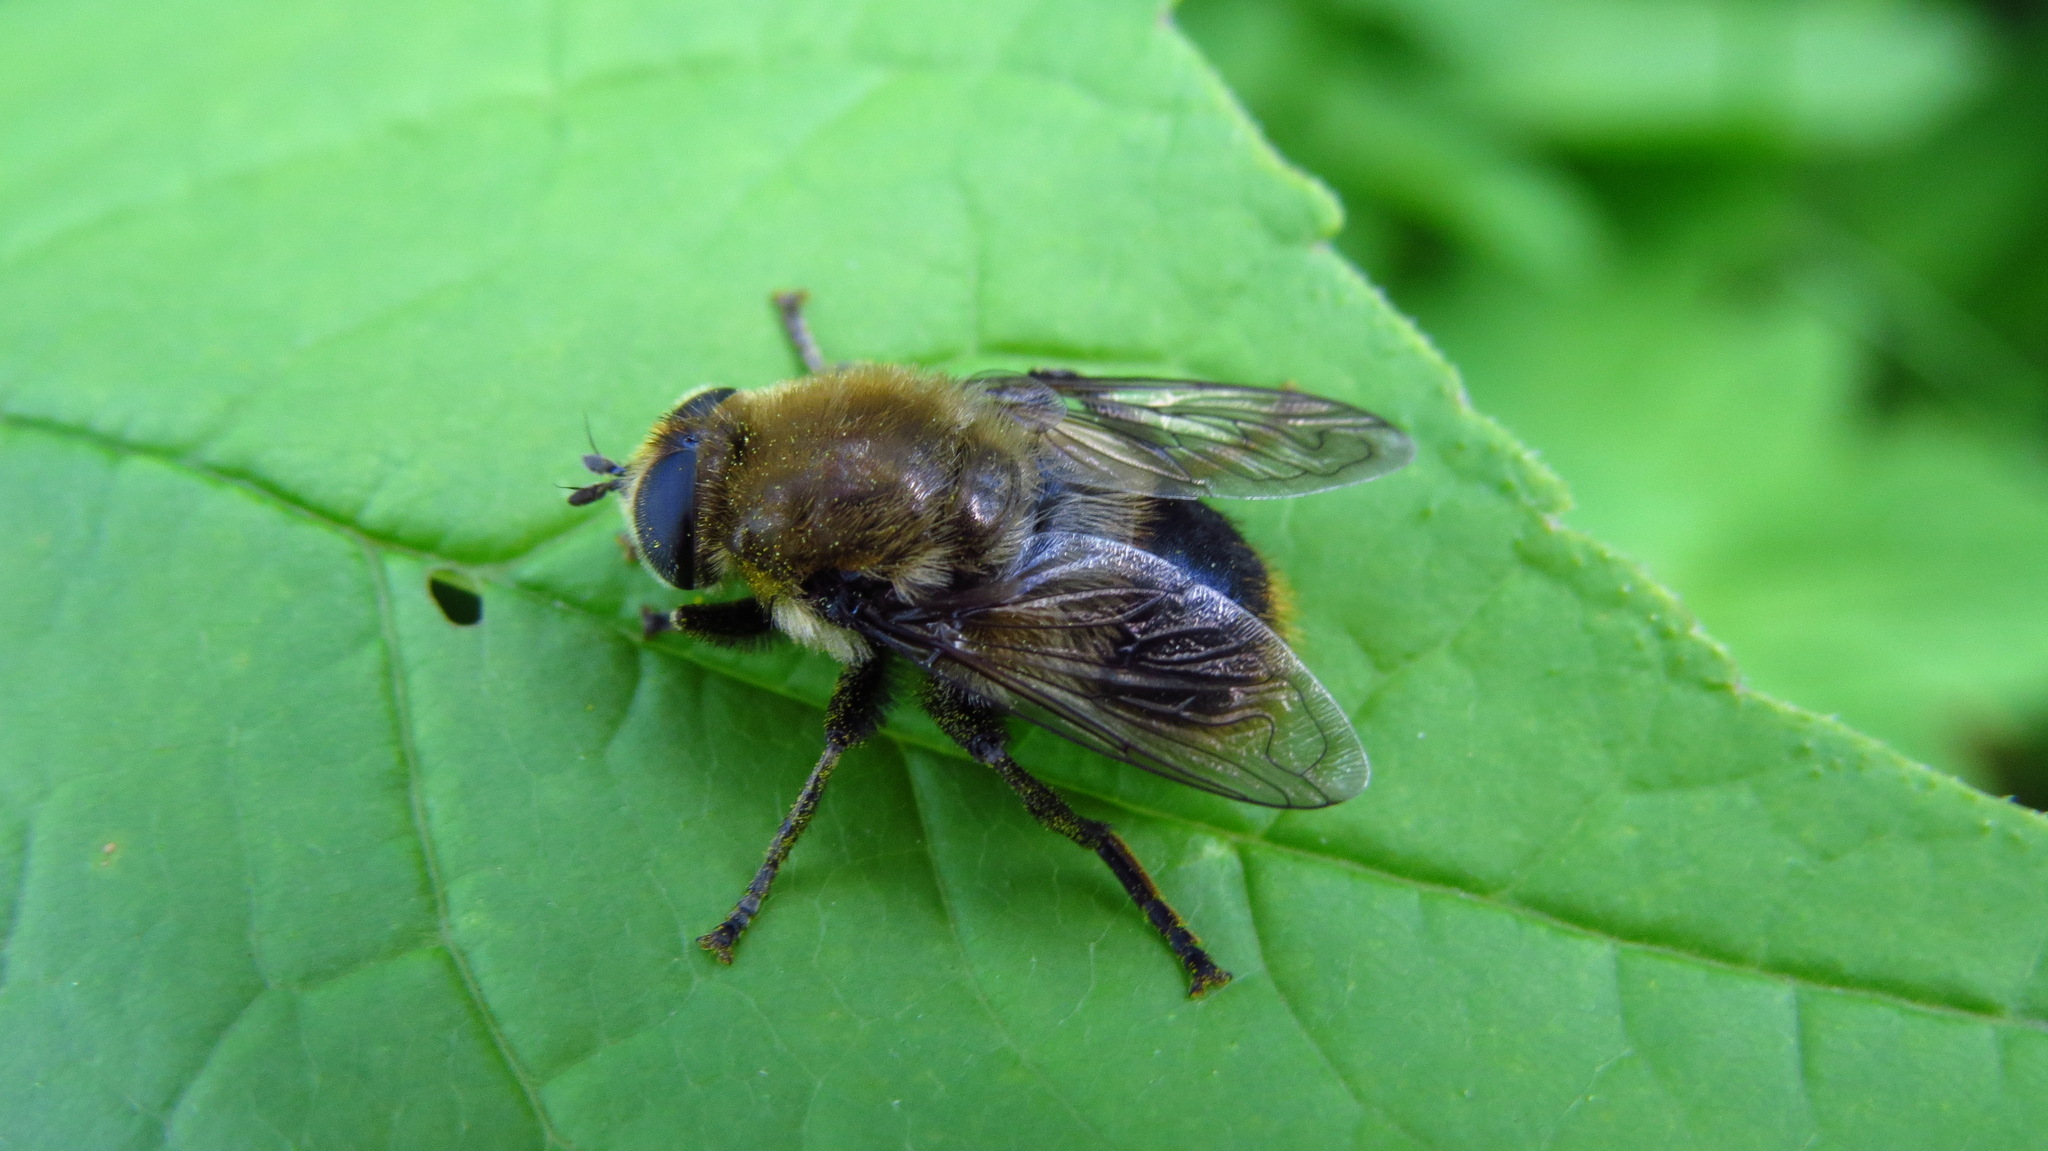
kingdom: Animalia
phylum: Arthropoda
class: Insecta
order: Diptera
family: Syrphidae
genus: Merodon
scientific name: Merodon equestris
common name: Greater bulb-fly
